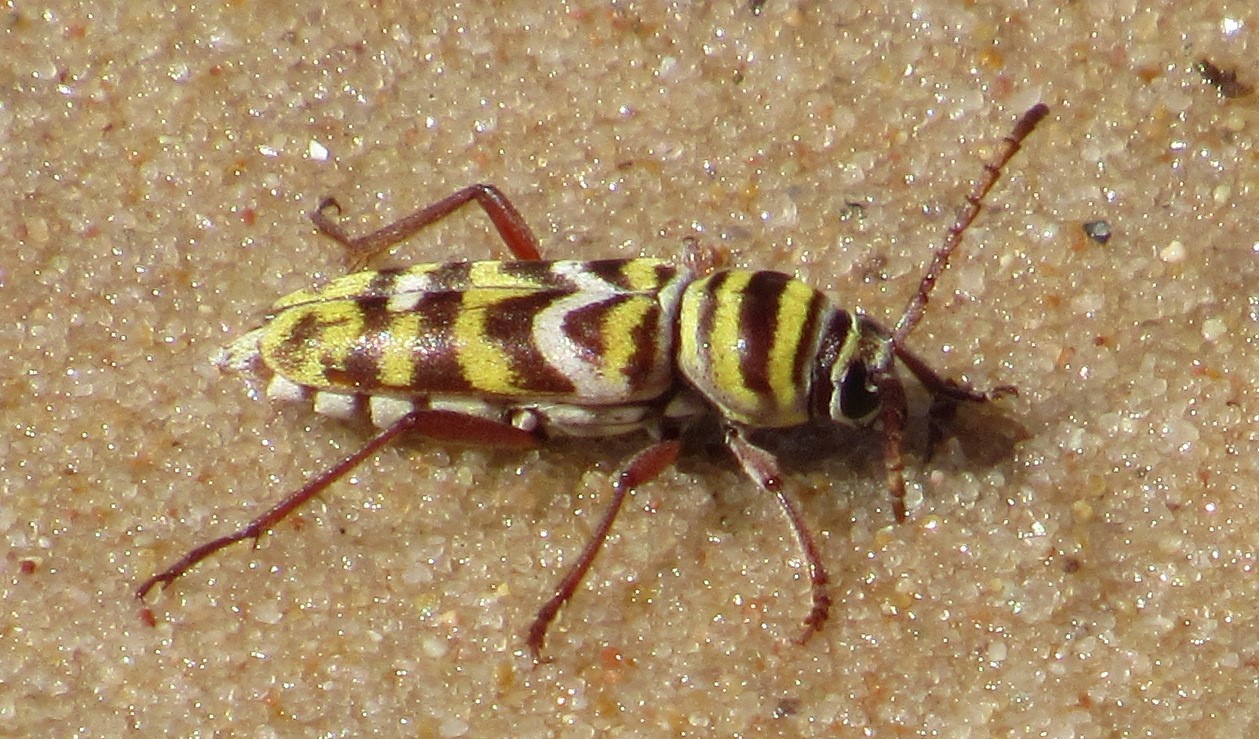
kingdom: Animalia
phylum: Arthropoda
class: Insecta
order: Coleoptera
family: Cerambycidae
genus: Megacyllene
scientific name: Megacyllene angulifera
